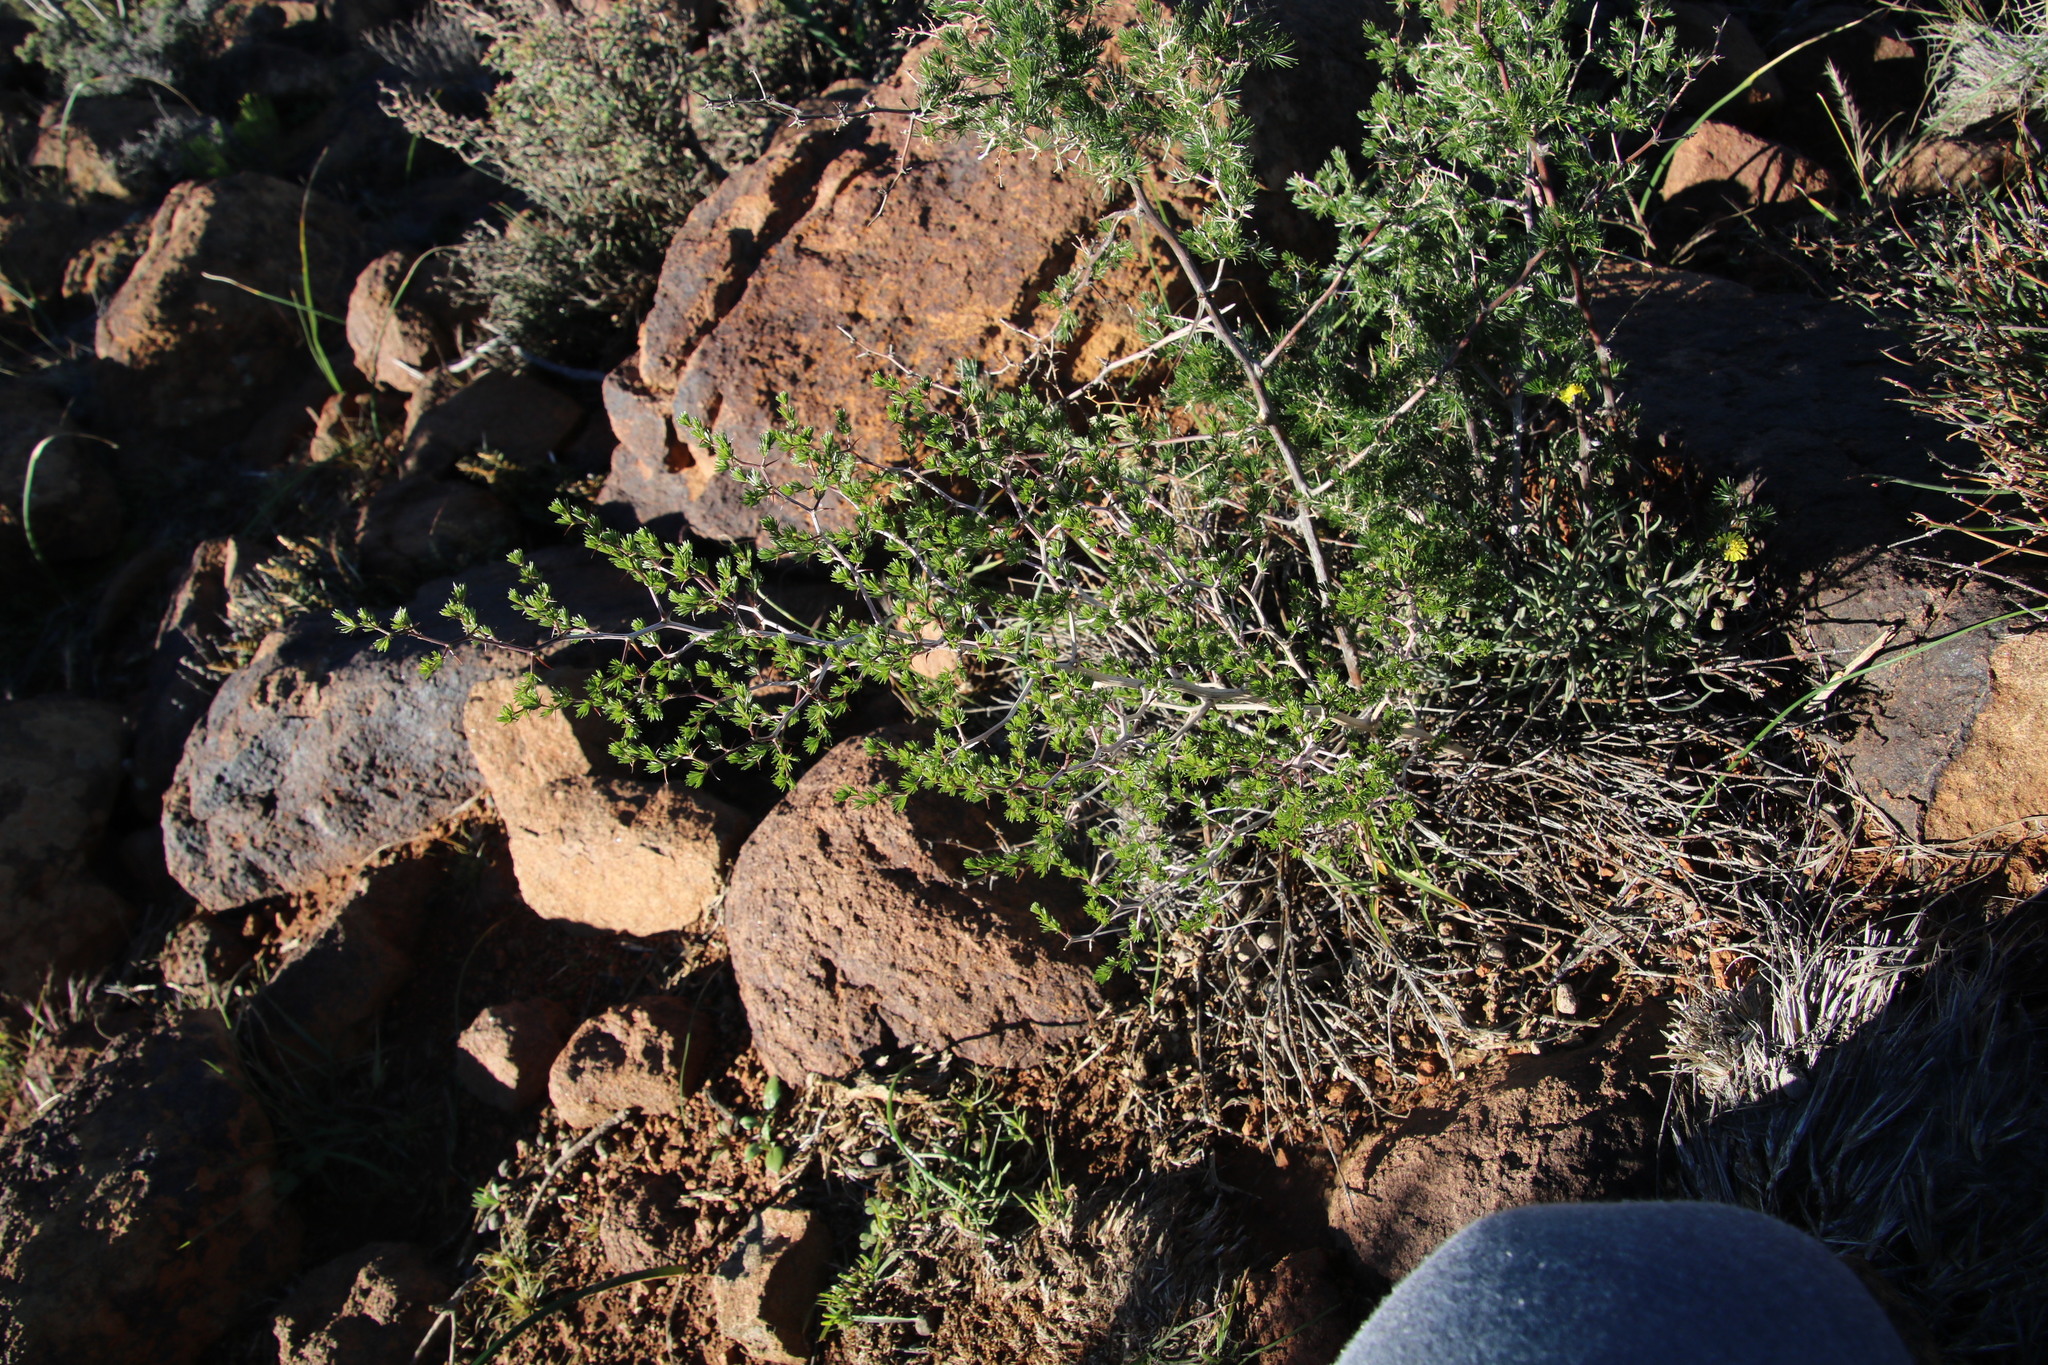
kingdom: Plantae
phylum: Tracheophyta
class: Liliopsida
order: Asparagales
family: Asparagaceae
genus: Asparagus
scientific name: Asparagus laricinus
